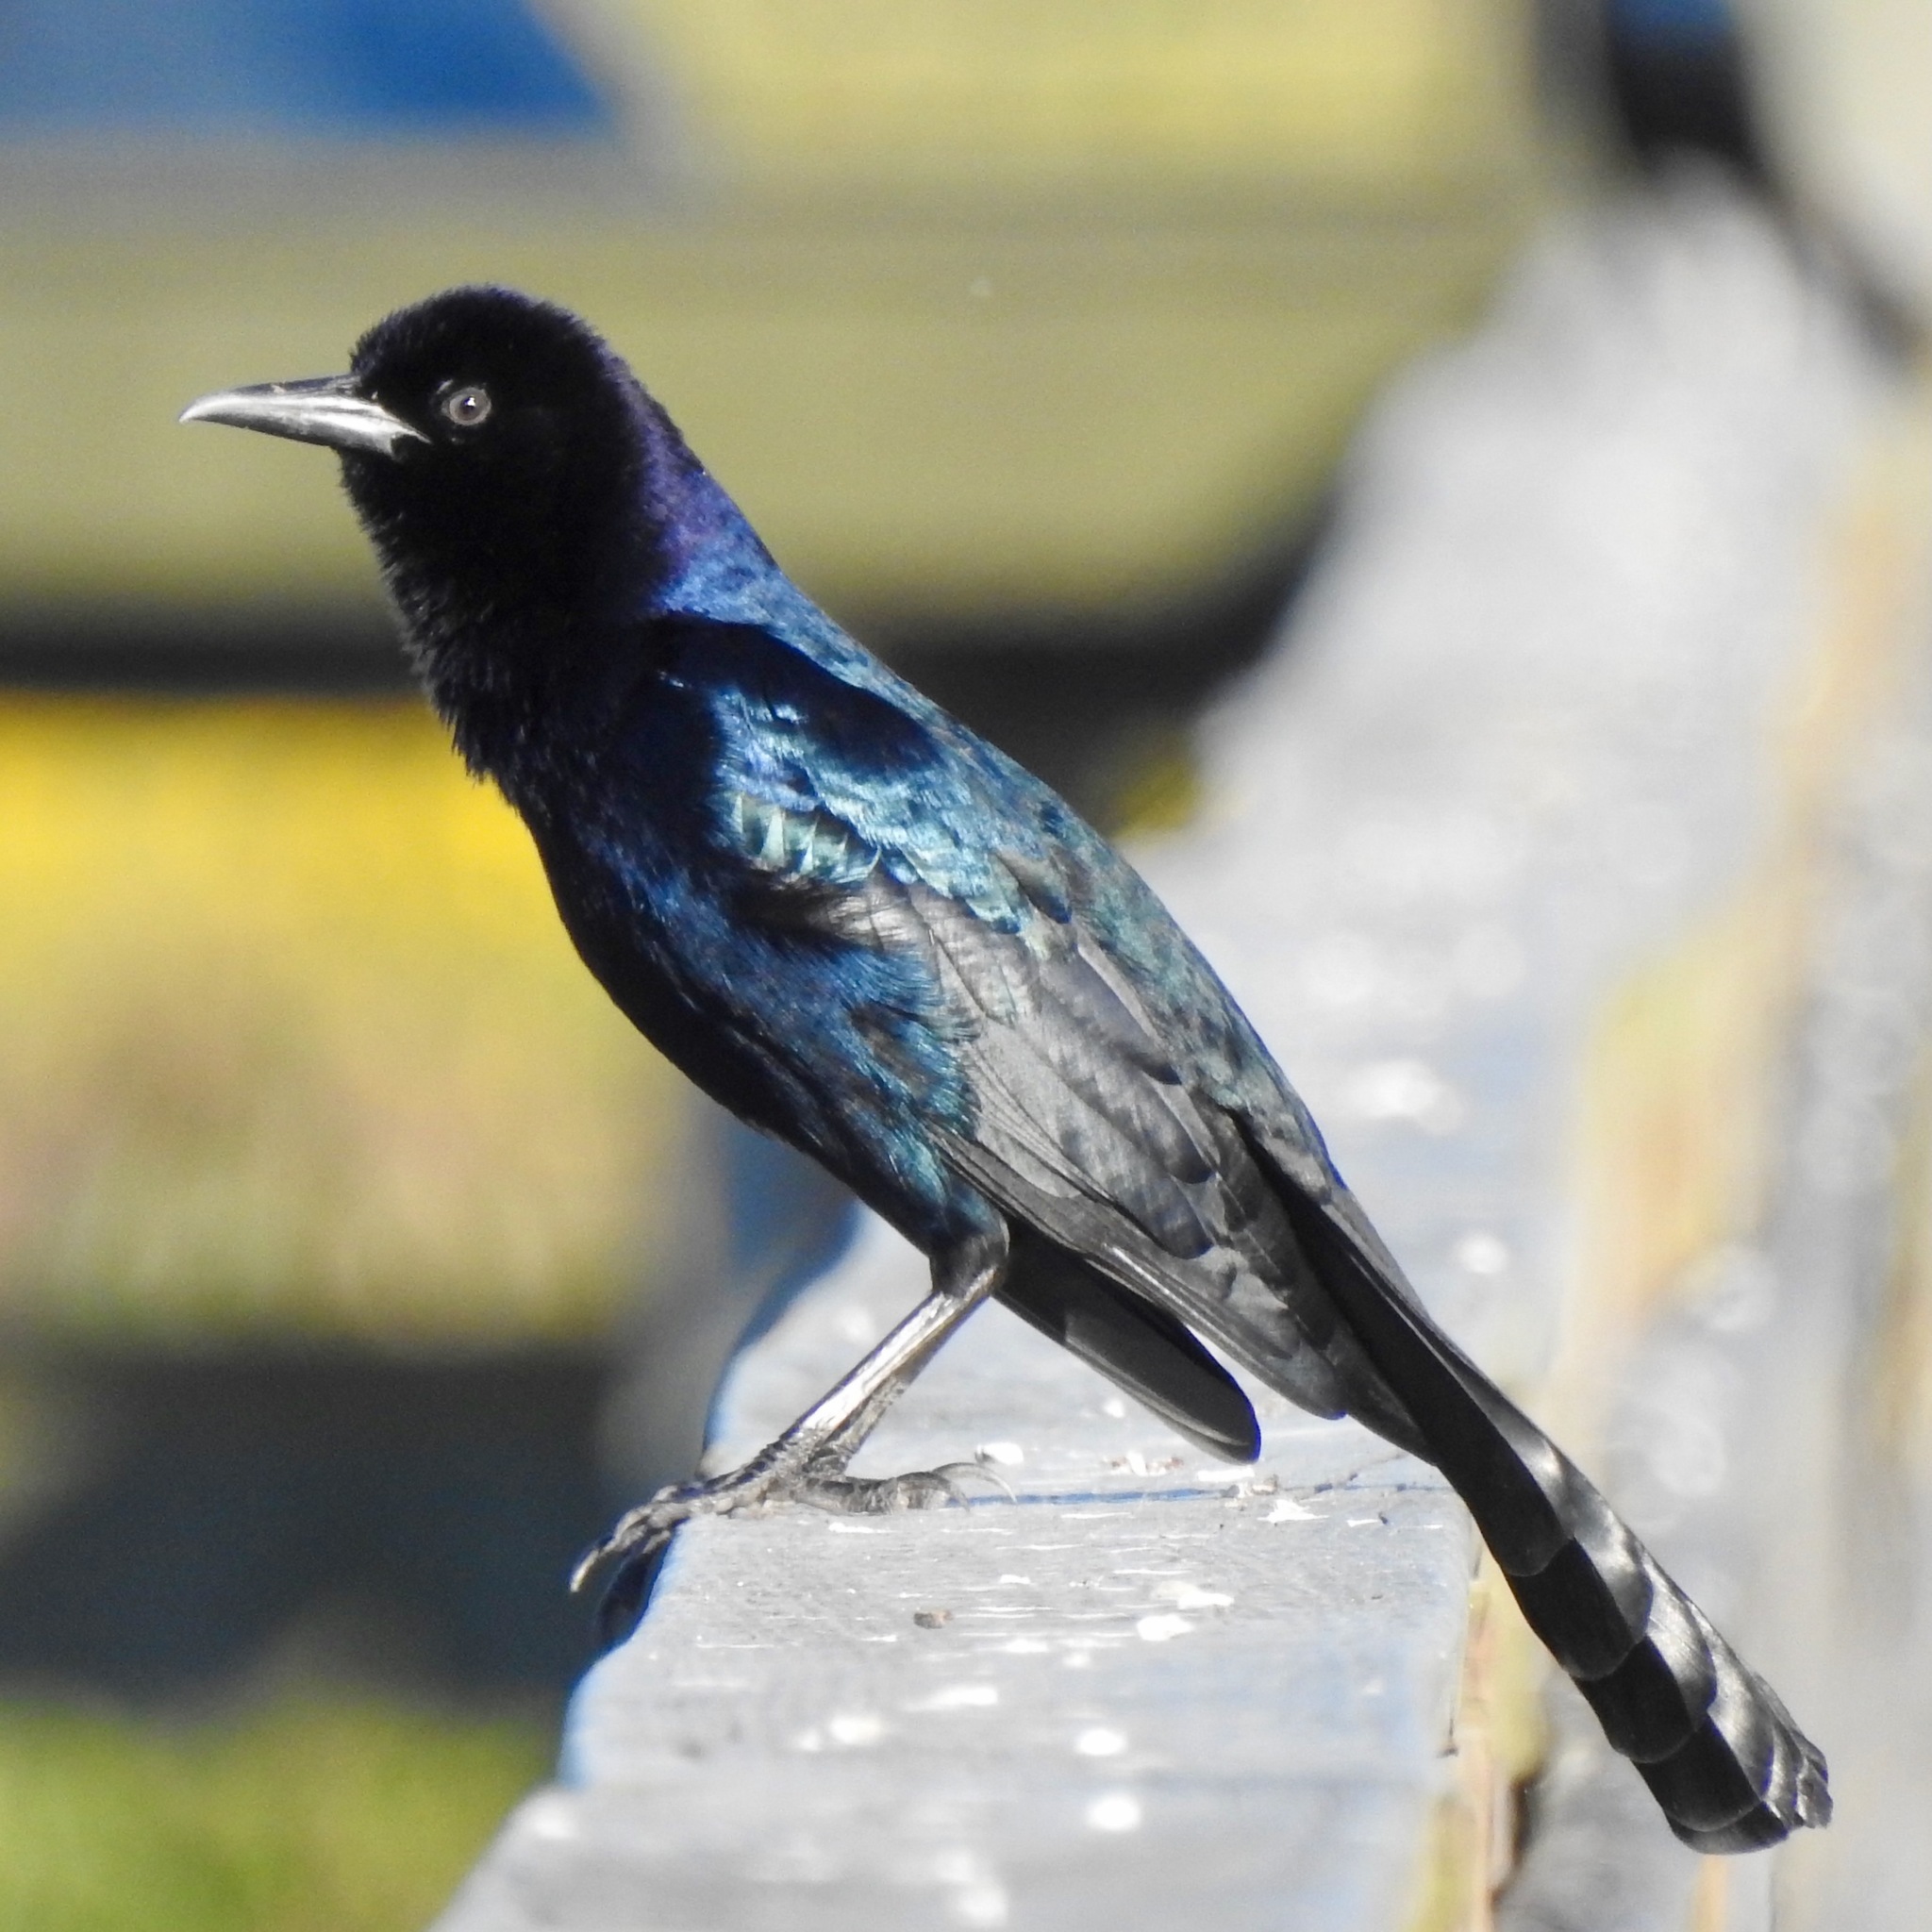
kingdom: Animalia
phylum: Chordata
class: Aves
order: Passeriformes
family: Icteridae
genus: Quiscalus
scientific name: Quiscalus major
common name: Boat-tailed grackle
